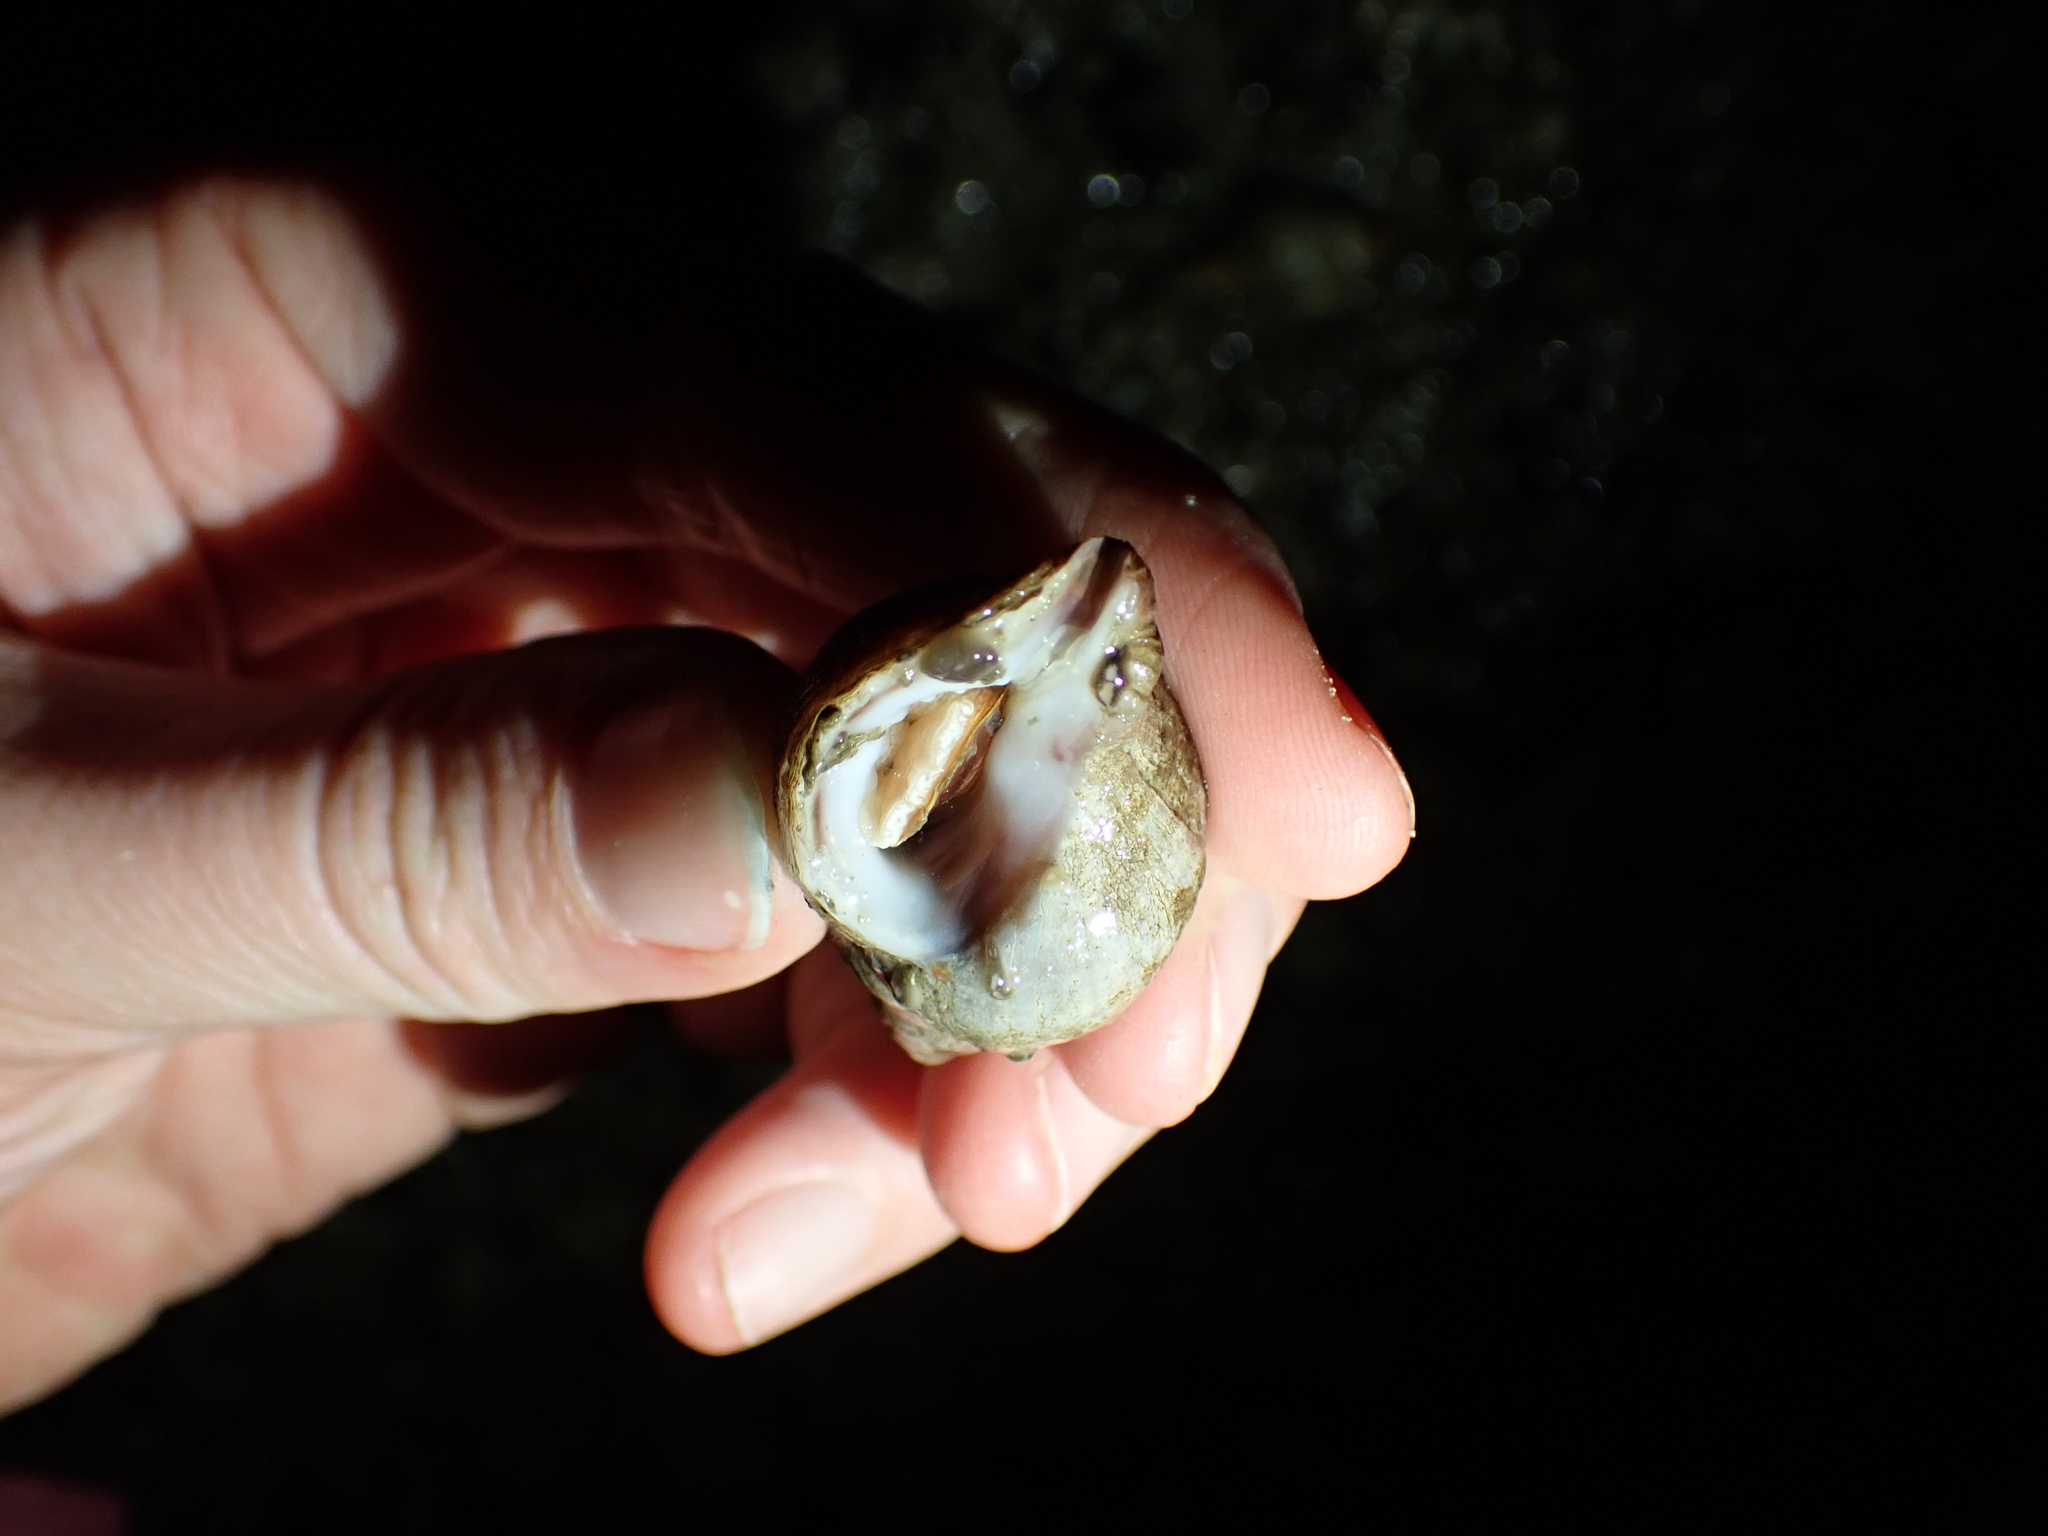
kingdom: Animalia
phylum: Mollusca
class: Gastropoda
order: Neogastropoda
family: Muricidae
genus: Nucella
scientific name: Nucella lamellosa
